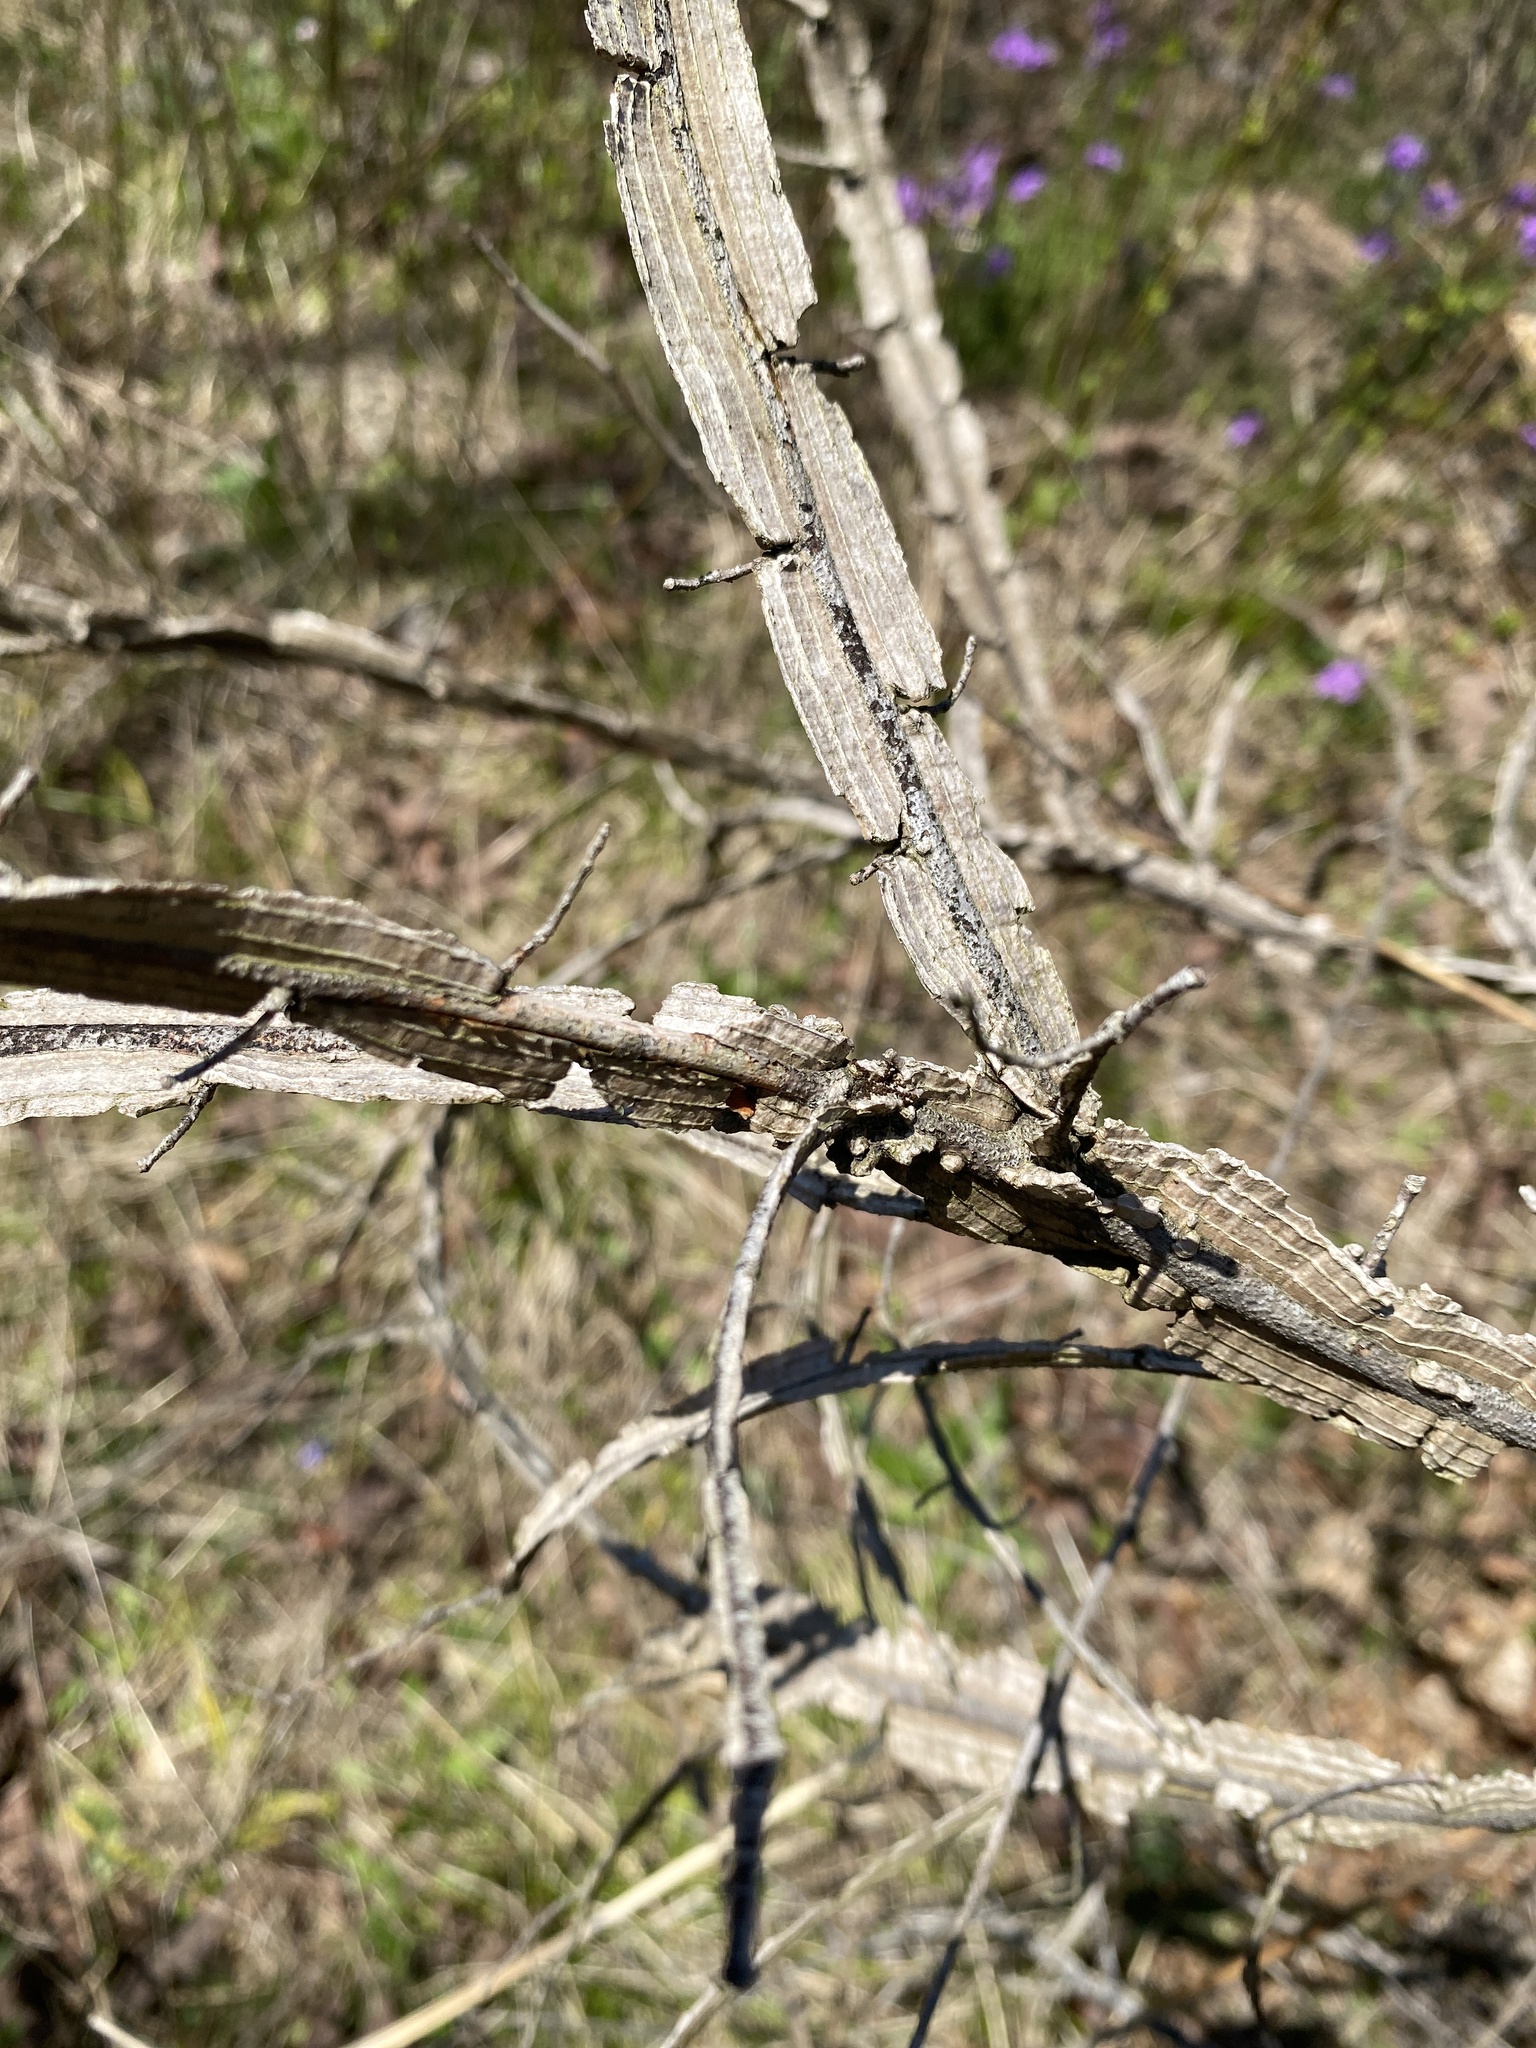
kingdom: Plantae
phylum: Tracheophyta
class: Magnoliopsida
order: Rosales
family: Ulmaceae
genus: Ulmus
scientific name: Ulmus alata
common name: Winged elm
